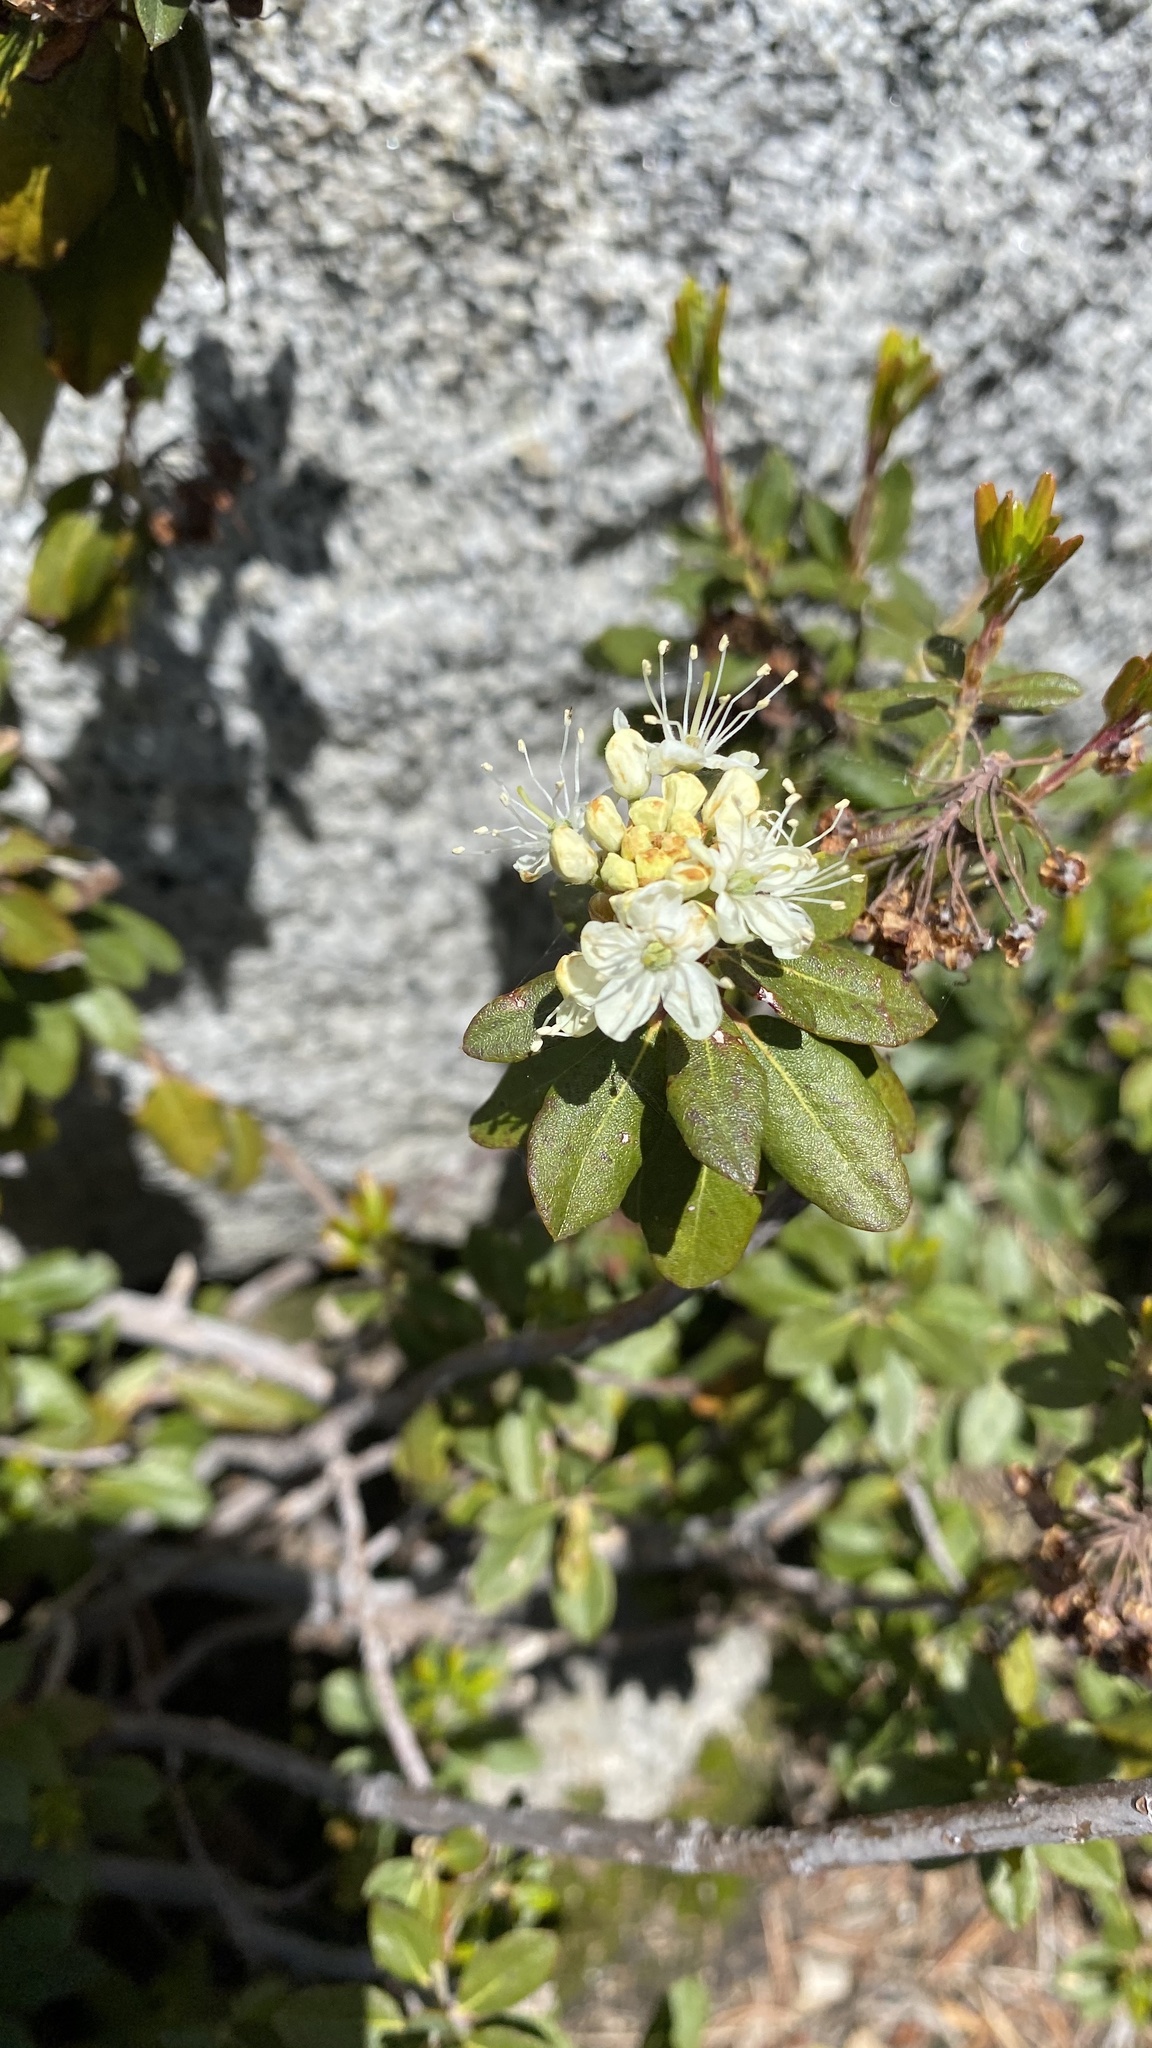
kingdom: Plantae
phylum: Tracheophyta
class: Magnoliopsida
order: Ericales
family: Ericaceae
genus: Rhododendron
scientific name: Rhododendron columbianum
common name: Western labrador tea
